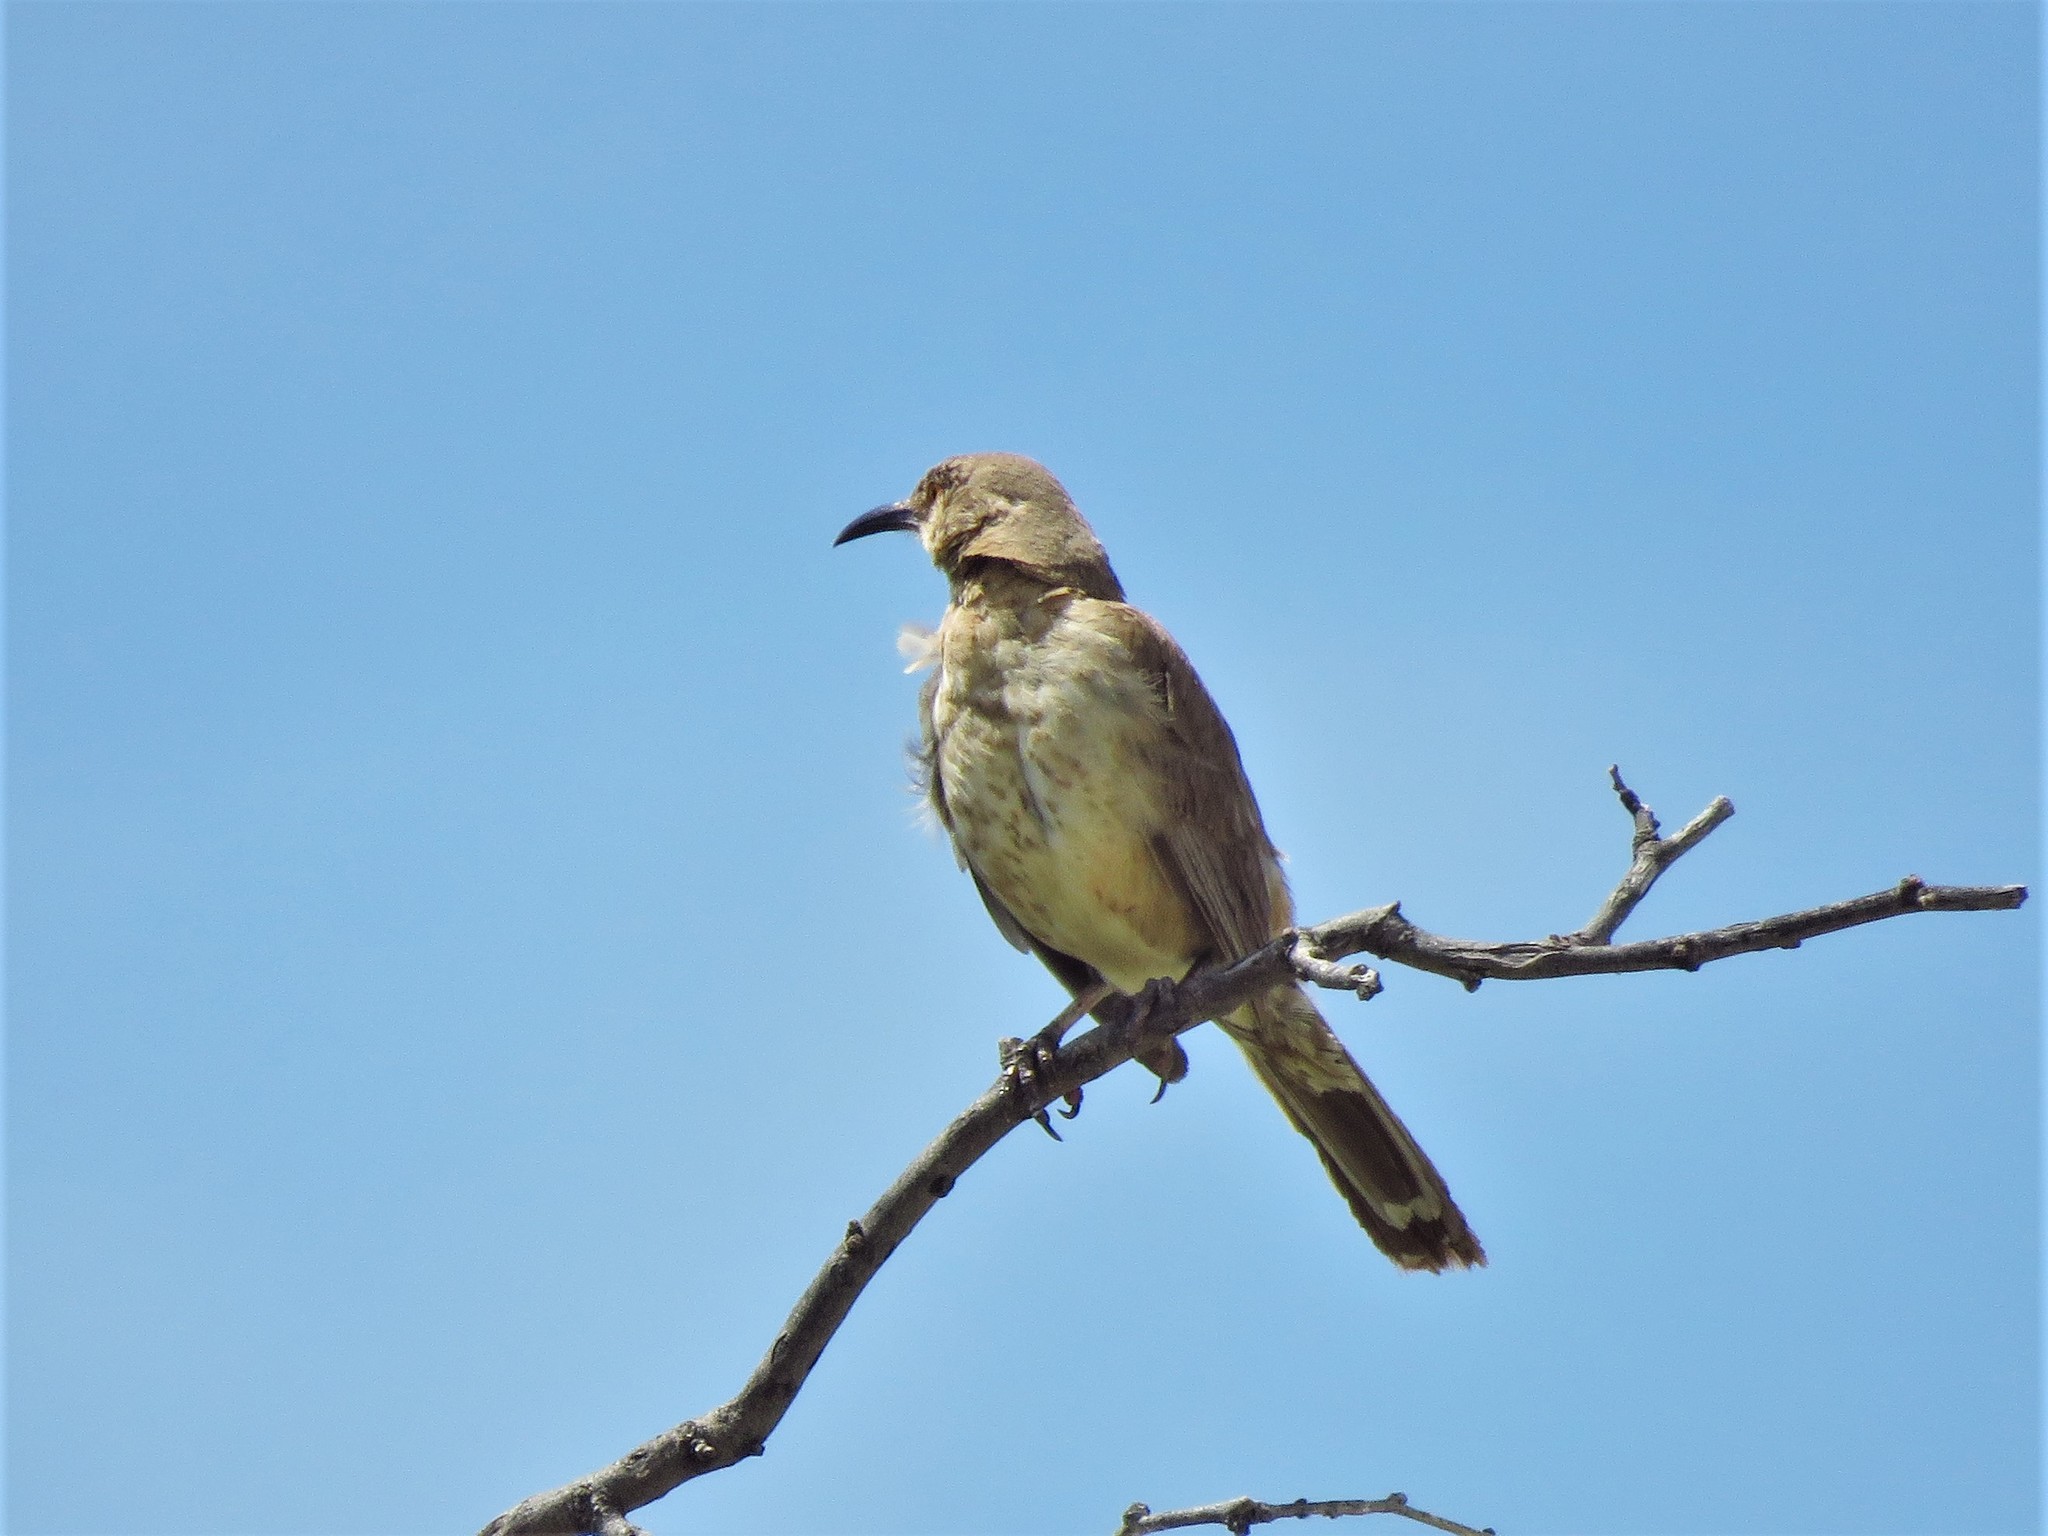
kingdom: Animalia
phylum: Chordata
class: Aves
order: Passeriformes
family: Mimidae
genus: Toxostoma
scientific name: Toxostoma curvirostre
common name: Curve-billed thrasher
